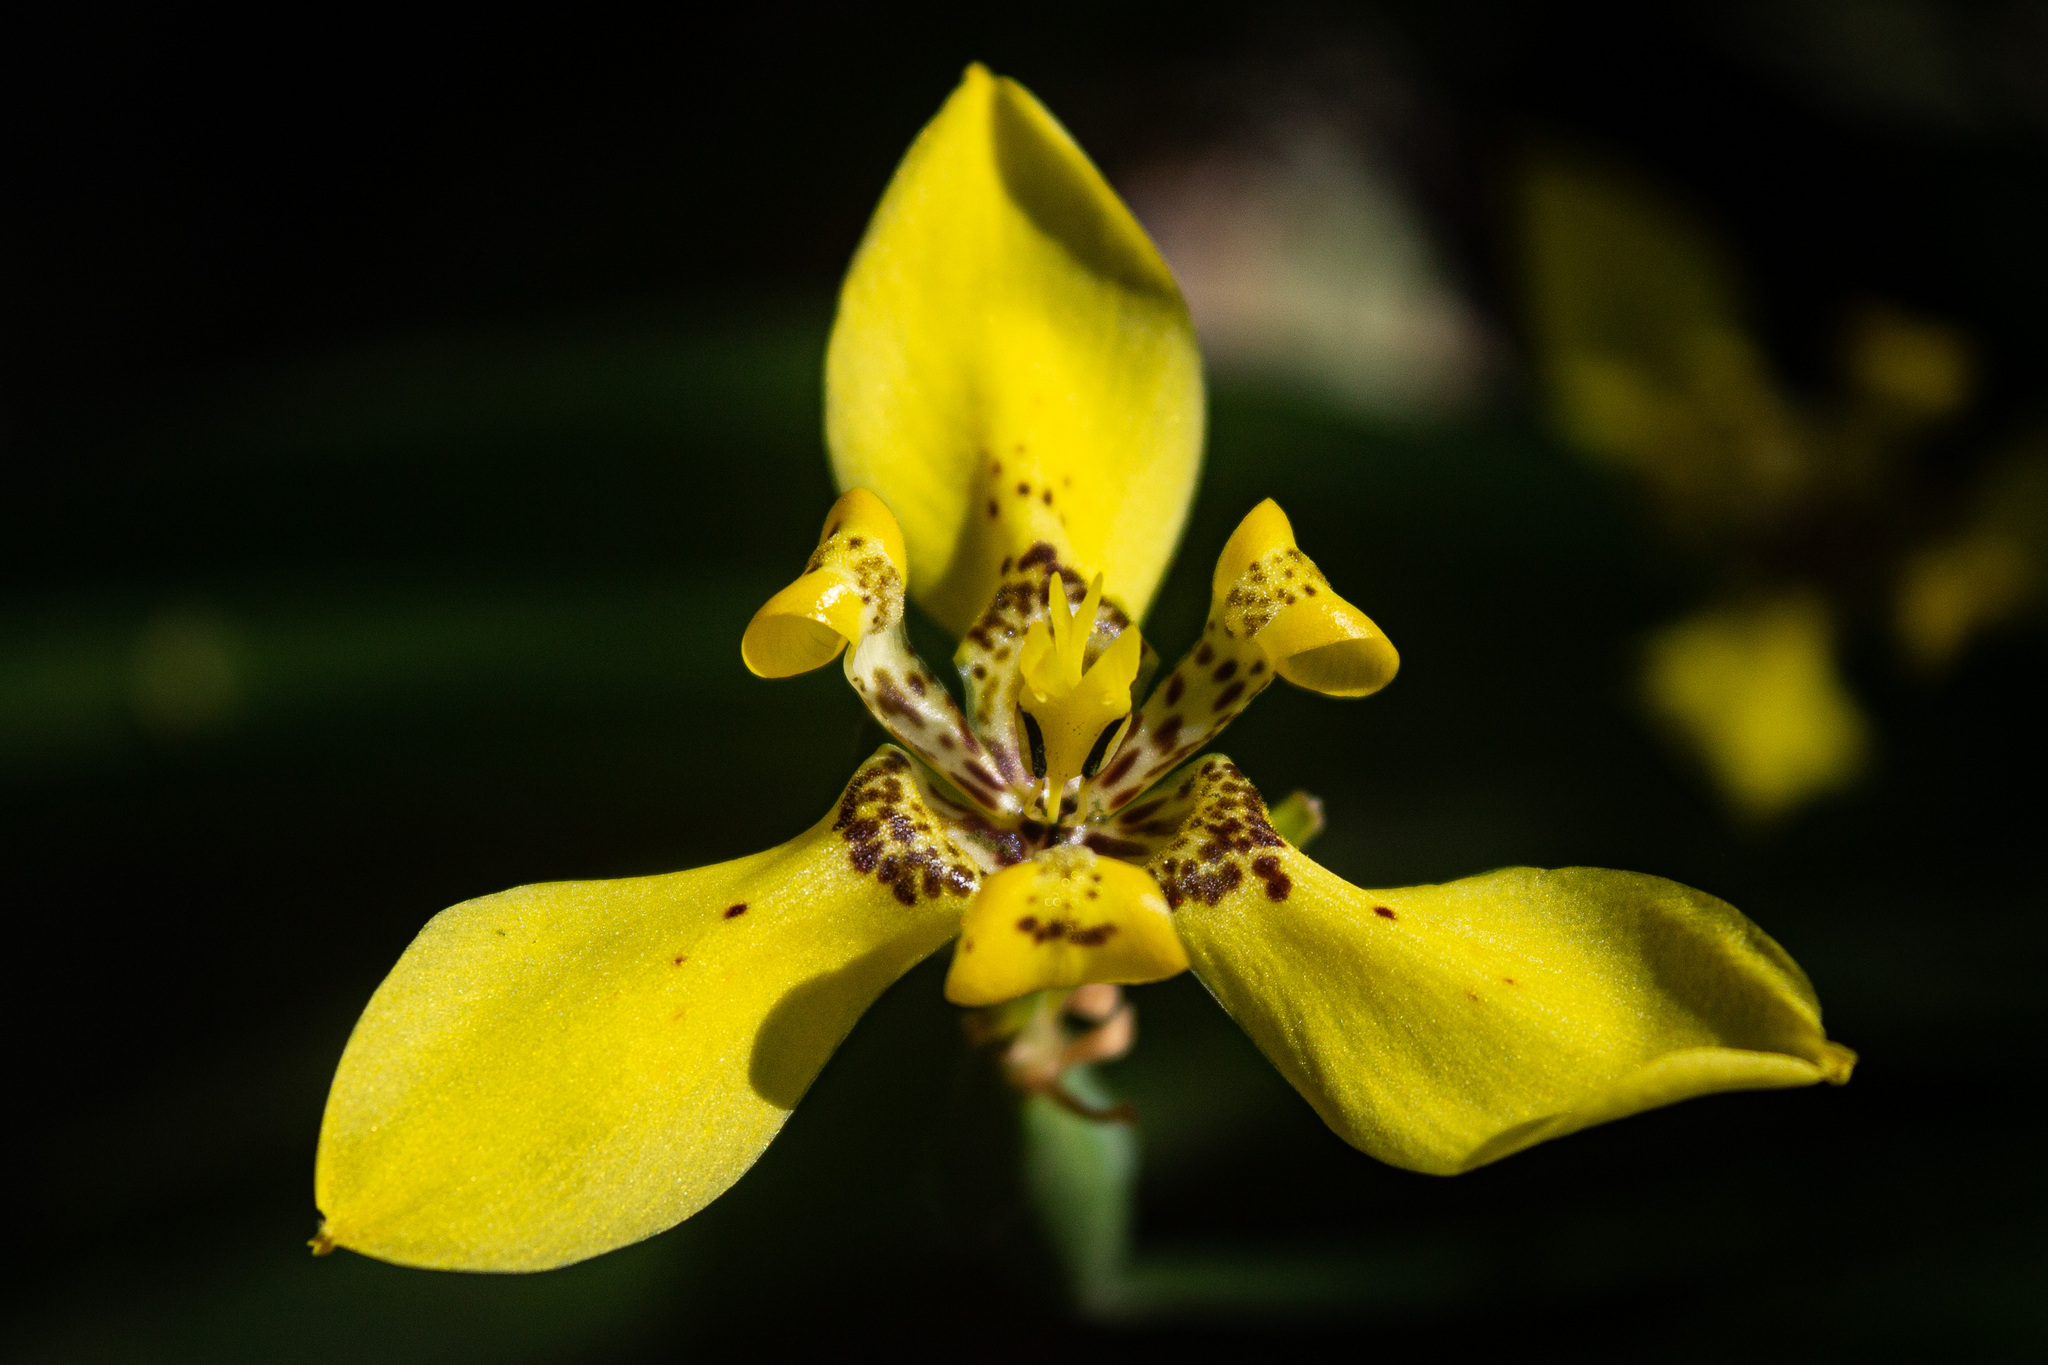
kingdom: Plantae
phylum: Tracheophyta
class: Liliopsida
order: Asparagales
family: Iridaceae
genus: Trimezia
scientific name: Trimezia steyermarkii
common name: Trimezia
